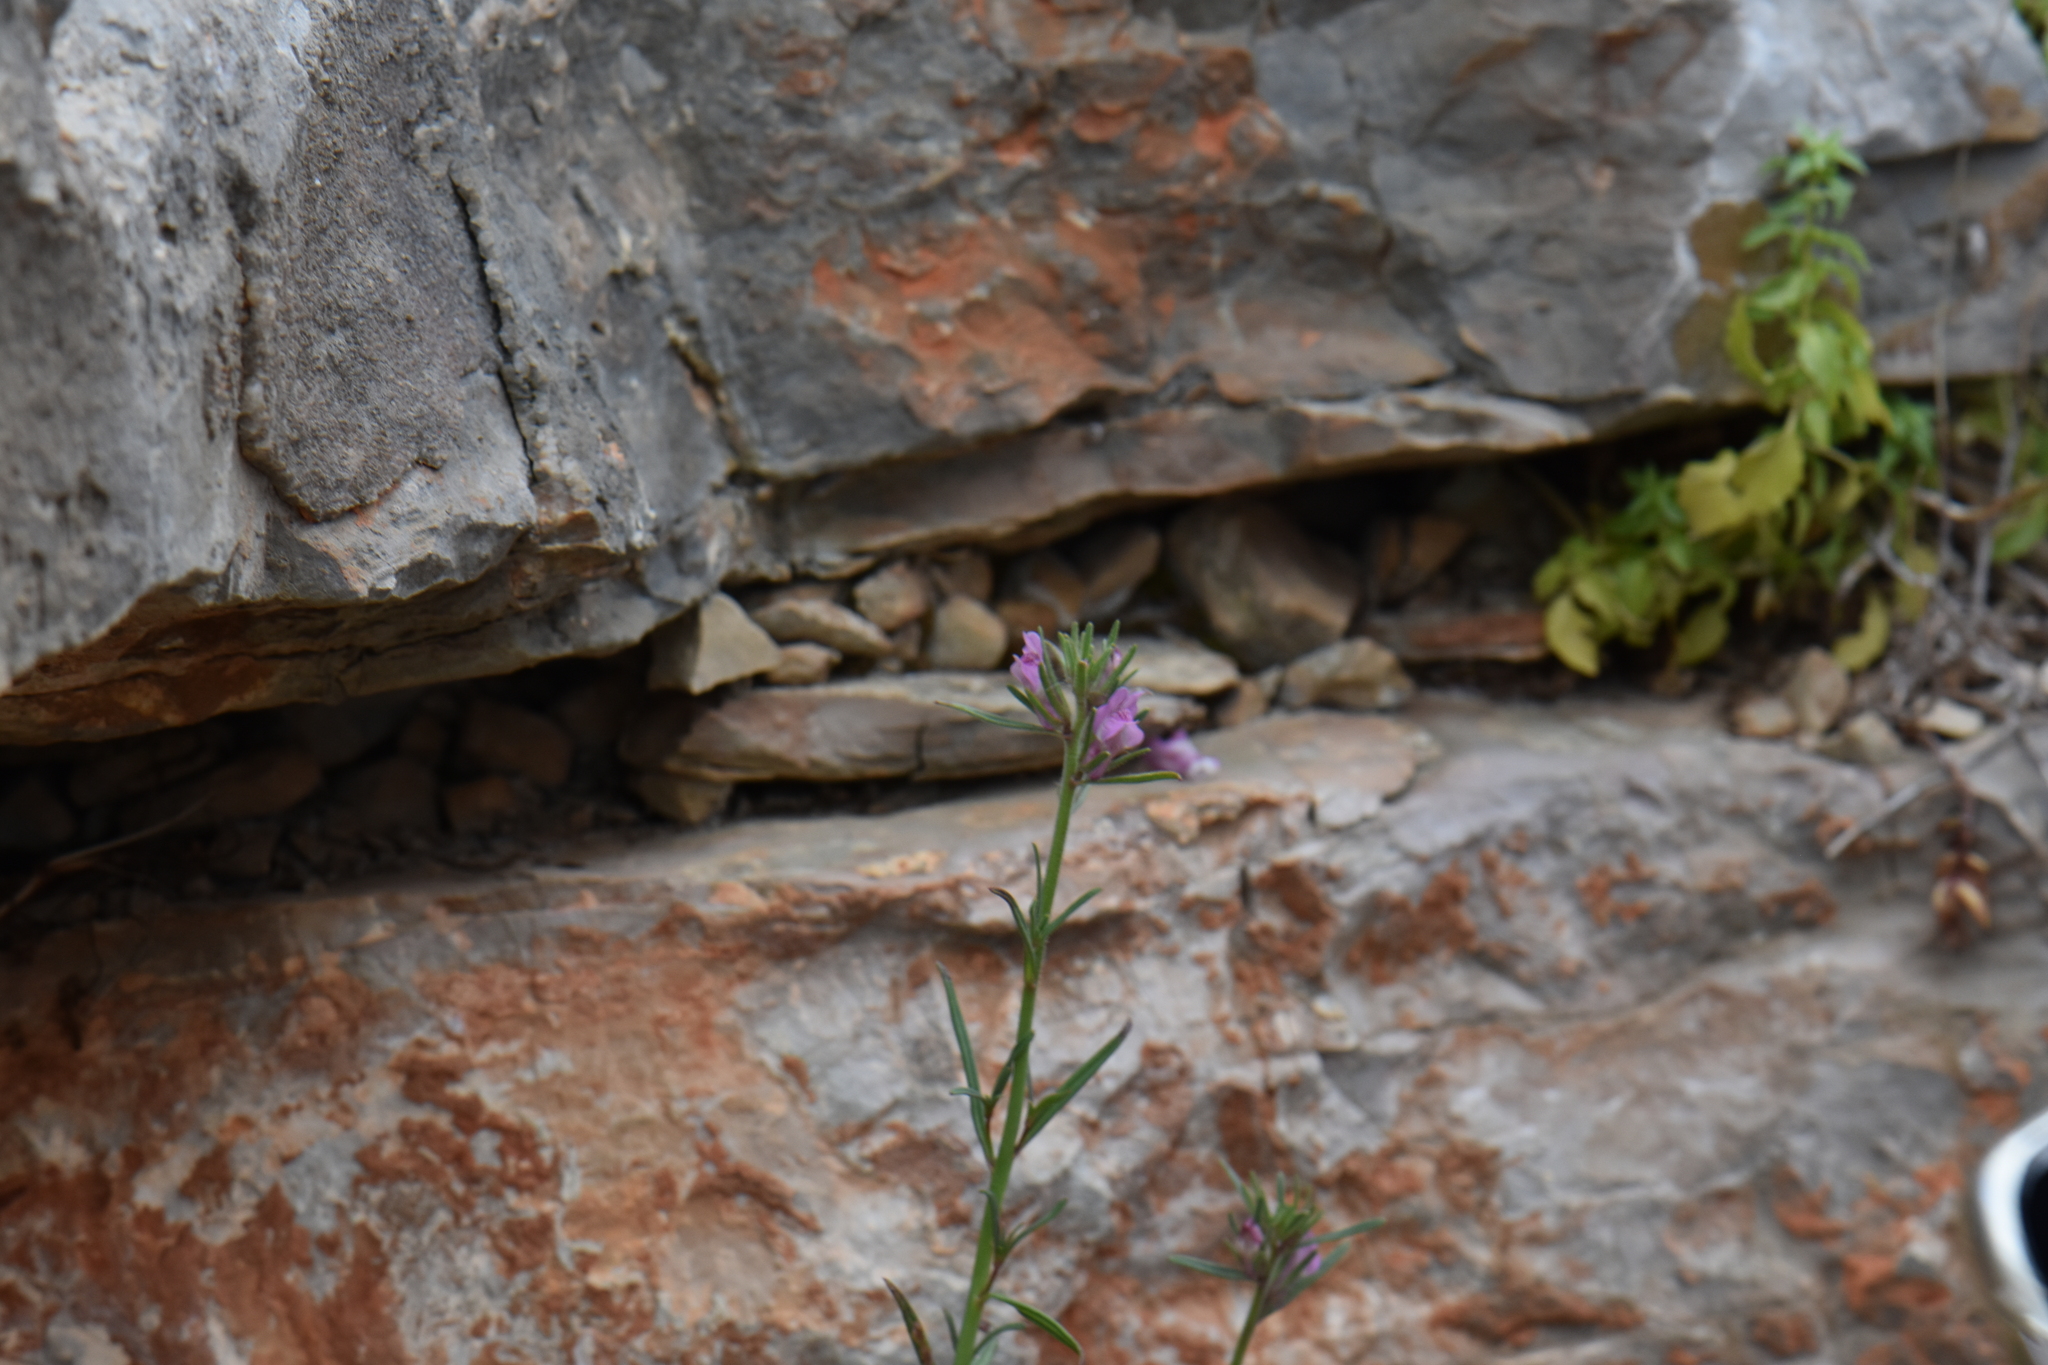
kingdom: Plantae
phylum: Tracheophyta
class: Magnoliopsida
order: Lamiales
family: Plantaginaceae
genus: Misopates
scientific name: Misopates orontium
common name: Weasel's-snout
